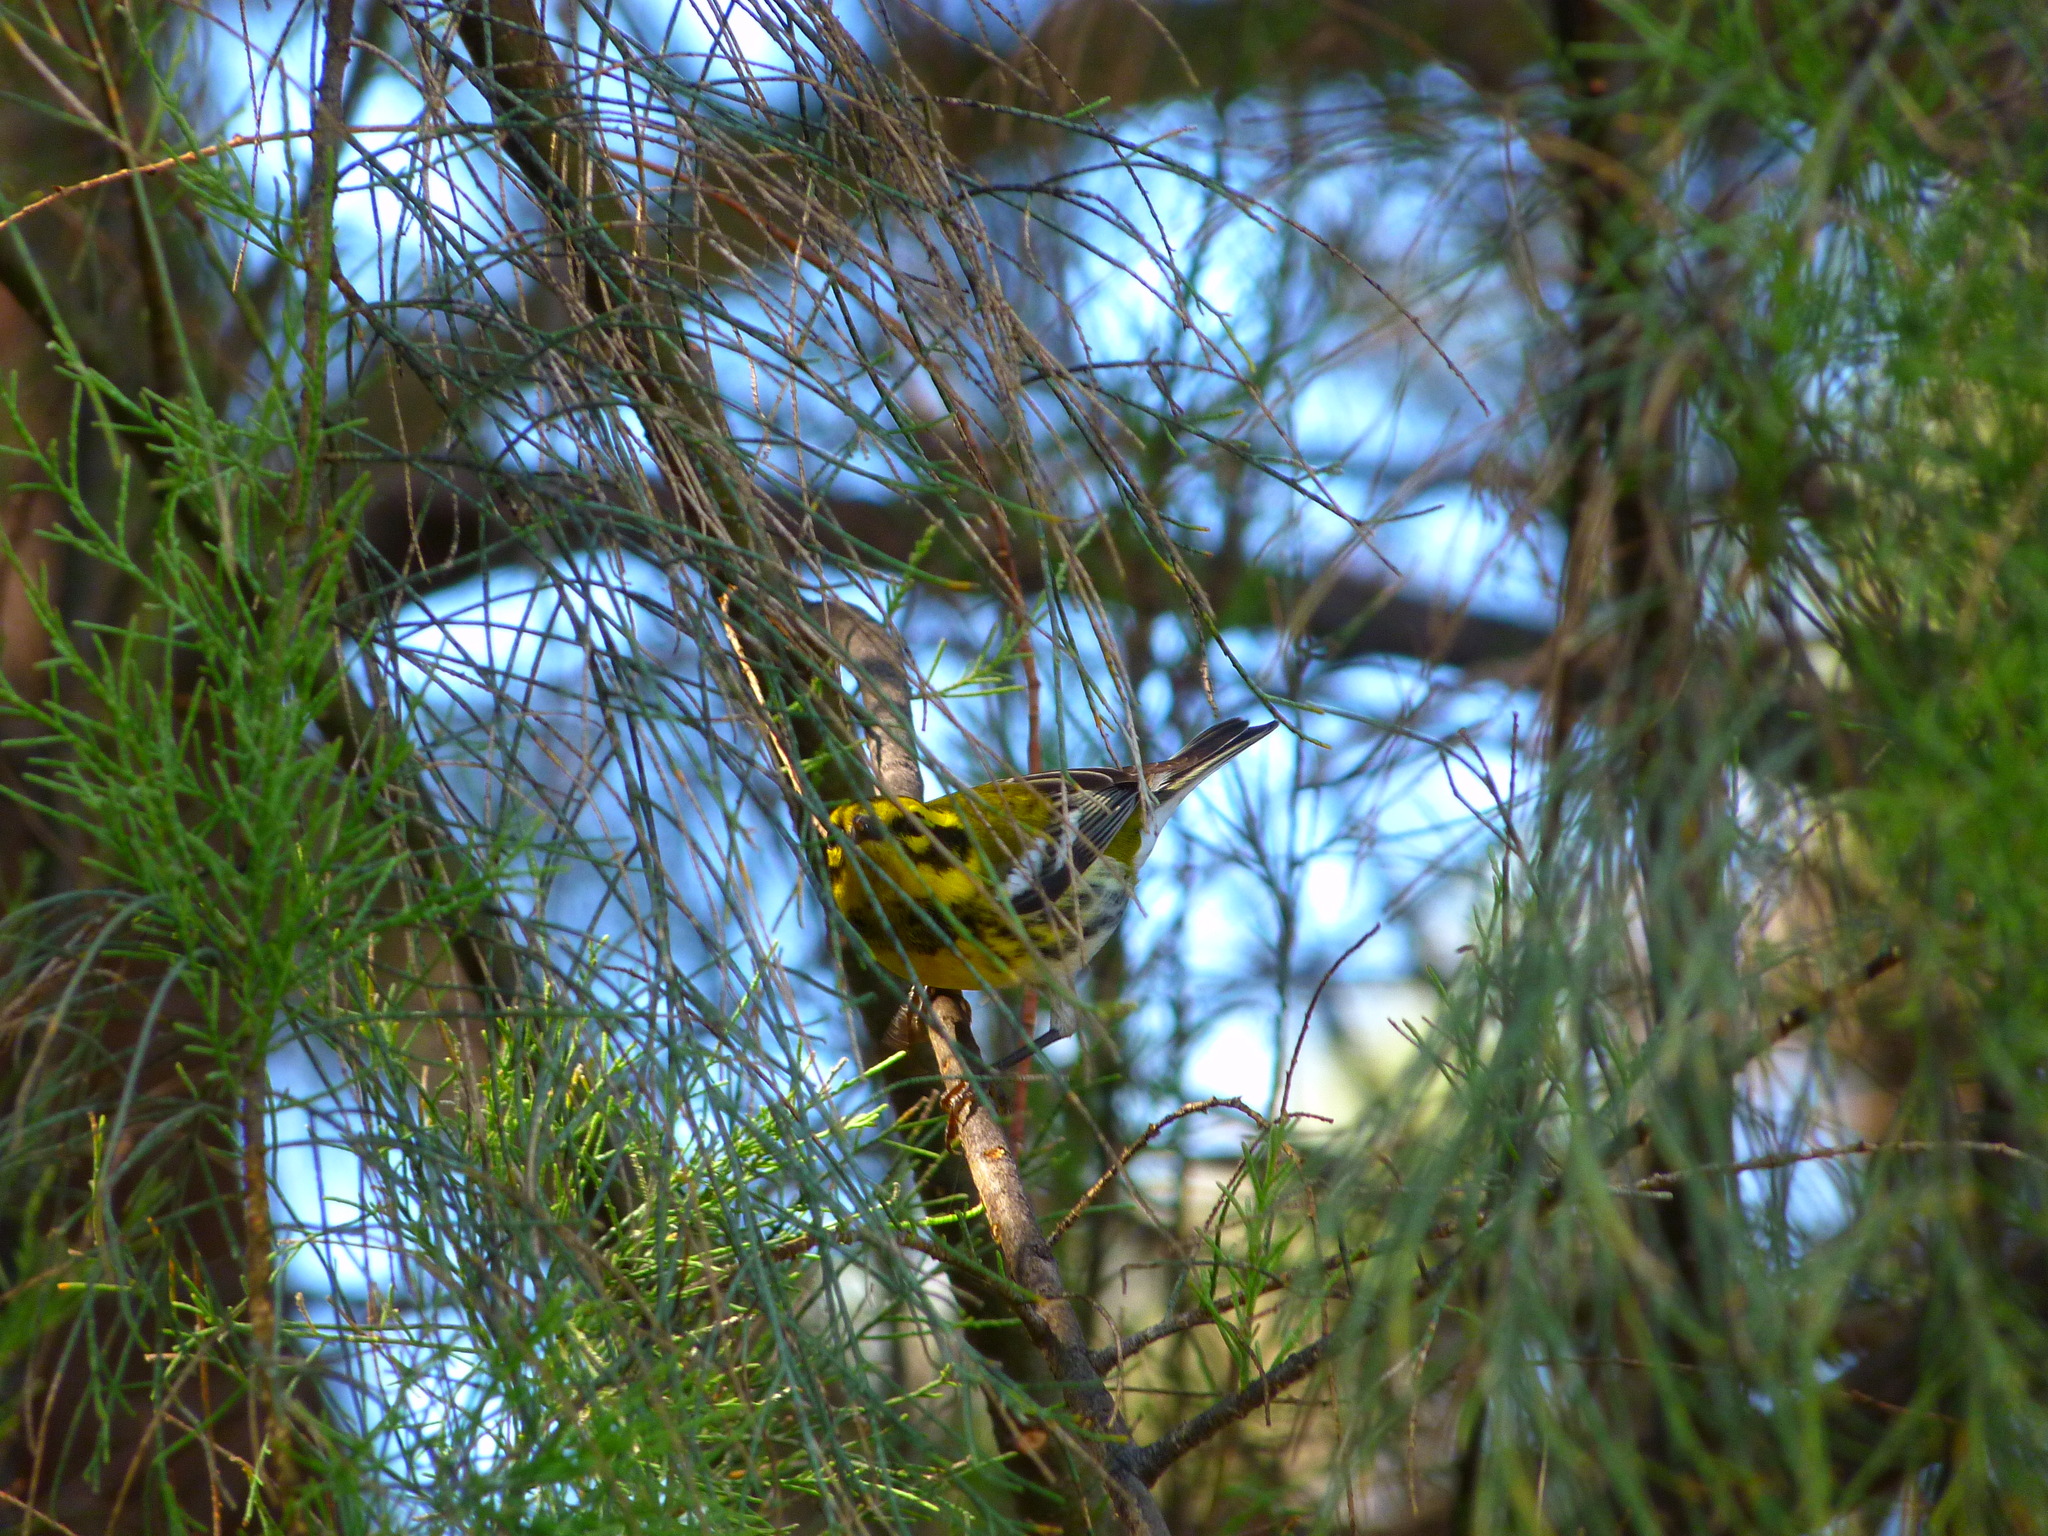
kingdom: Animalia
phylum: Chordata
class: Aves
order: Passeriformes
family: Parulidae
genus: Setophaga
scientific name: Setophaga townsendi
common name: Townsend's warbler
